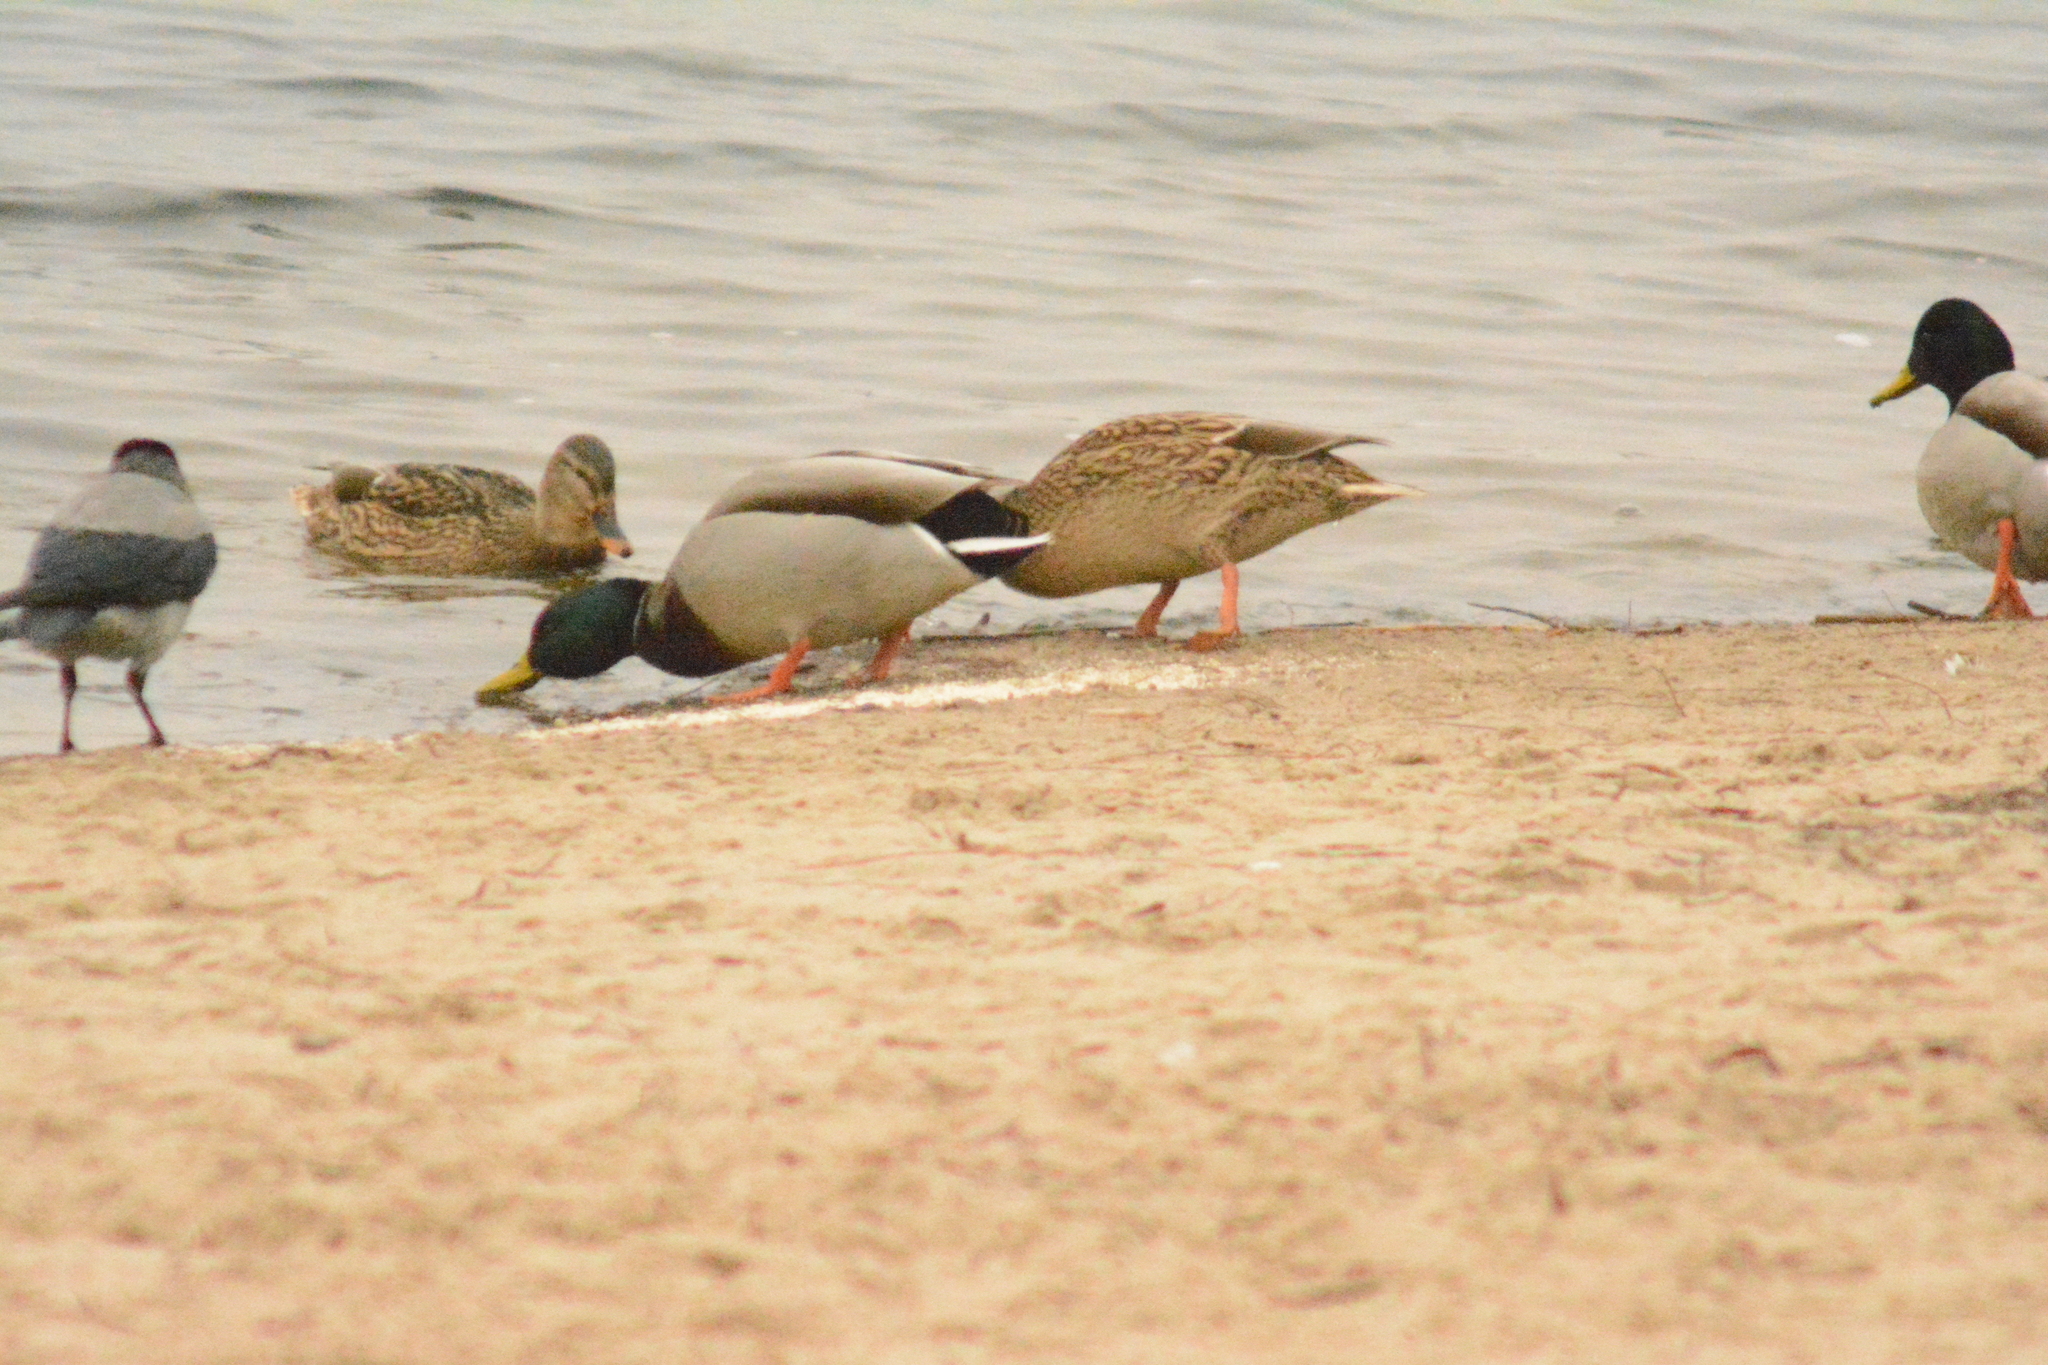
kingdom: Animalia
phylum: Chordata
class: Aves
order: Anseriformes
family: Anatidae
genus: Anas
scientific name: Anas platyrhynchos
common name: Mallard
